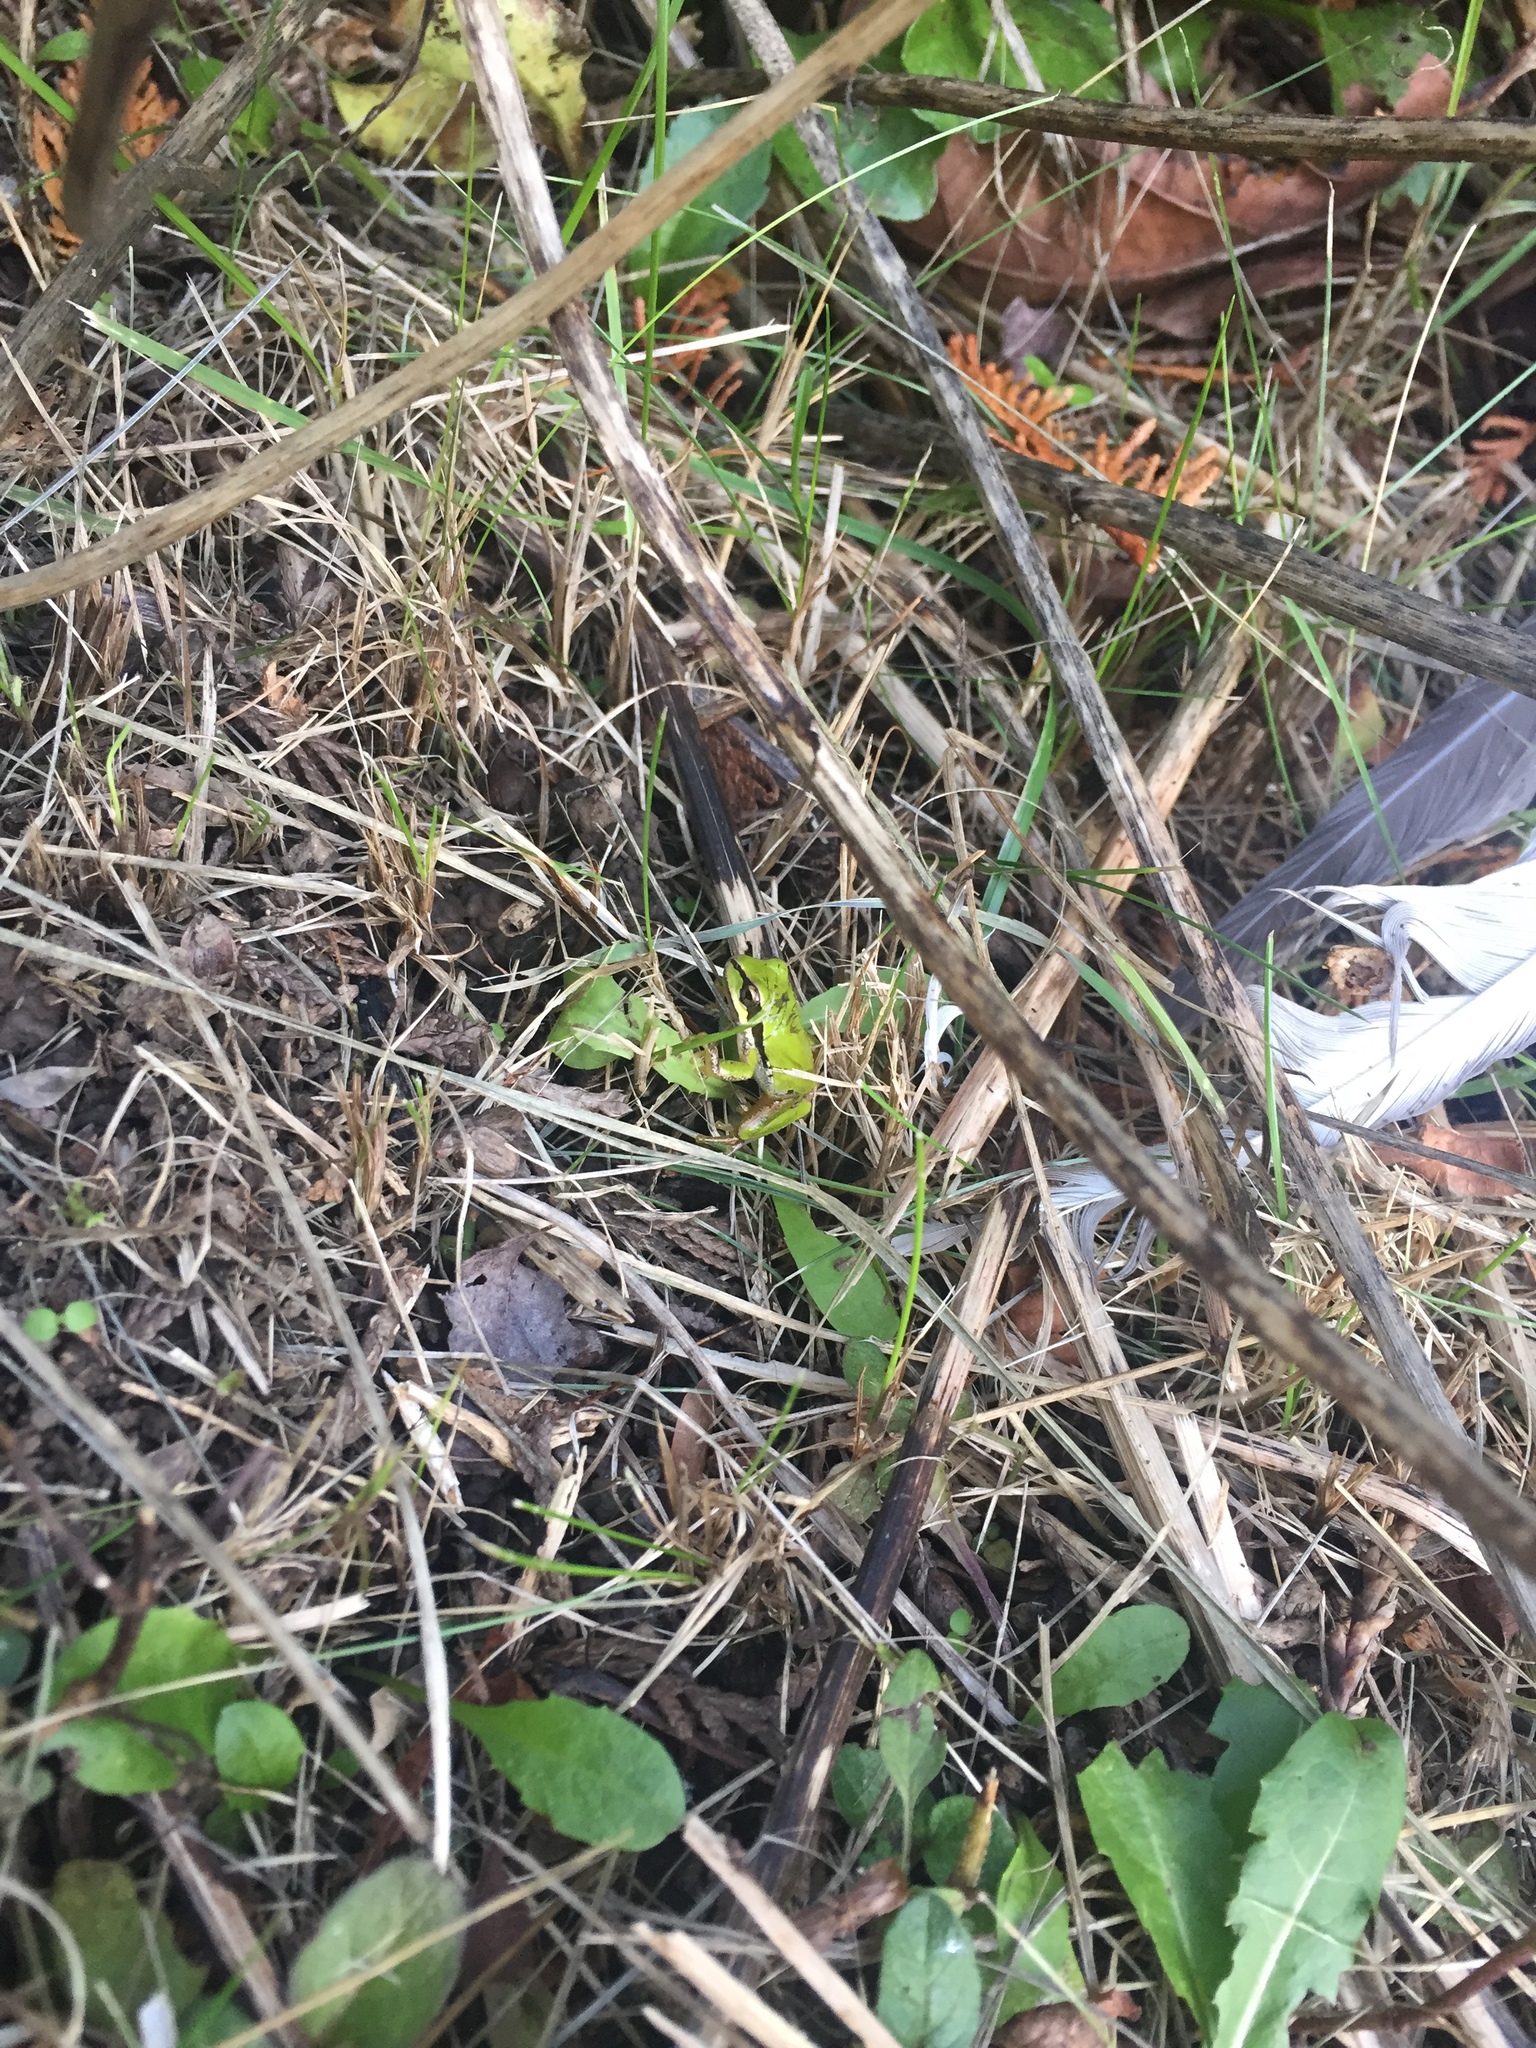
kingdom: Animalia
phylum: Chordata
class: Amphibia
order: Anura
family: Hylidae
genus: Pseudacris
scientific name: Pseudacris regilla
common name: Pacific chorus frog
